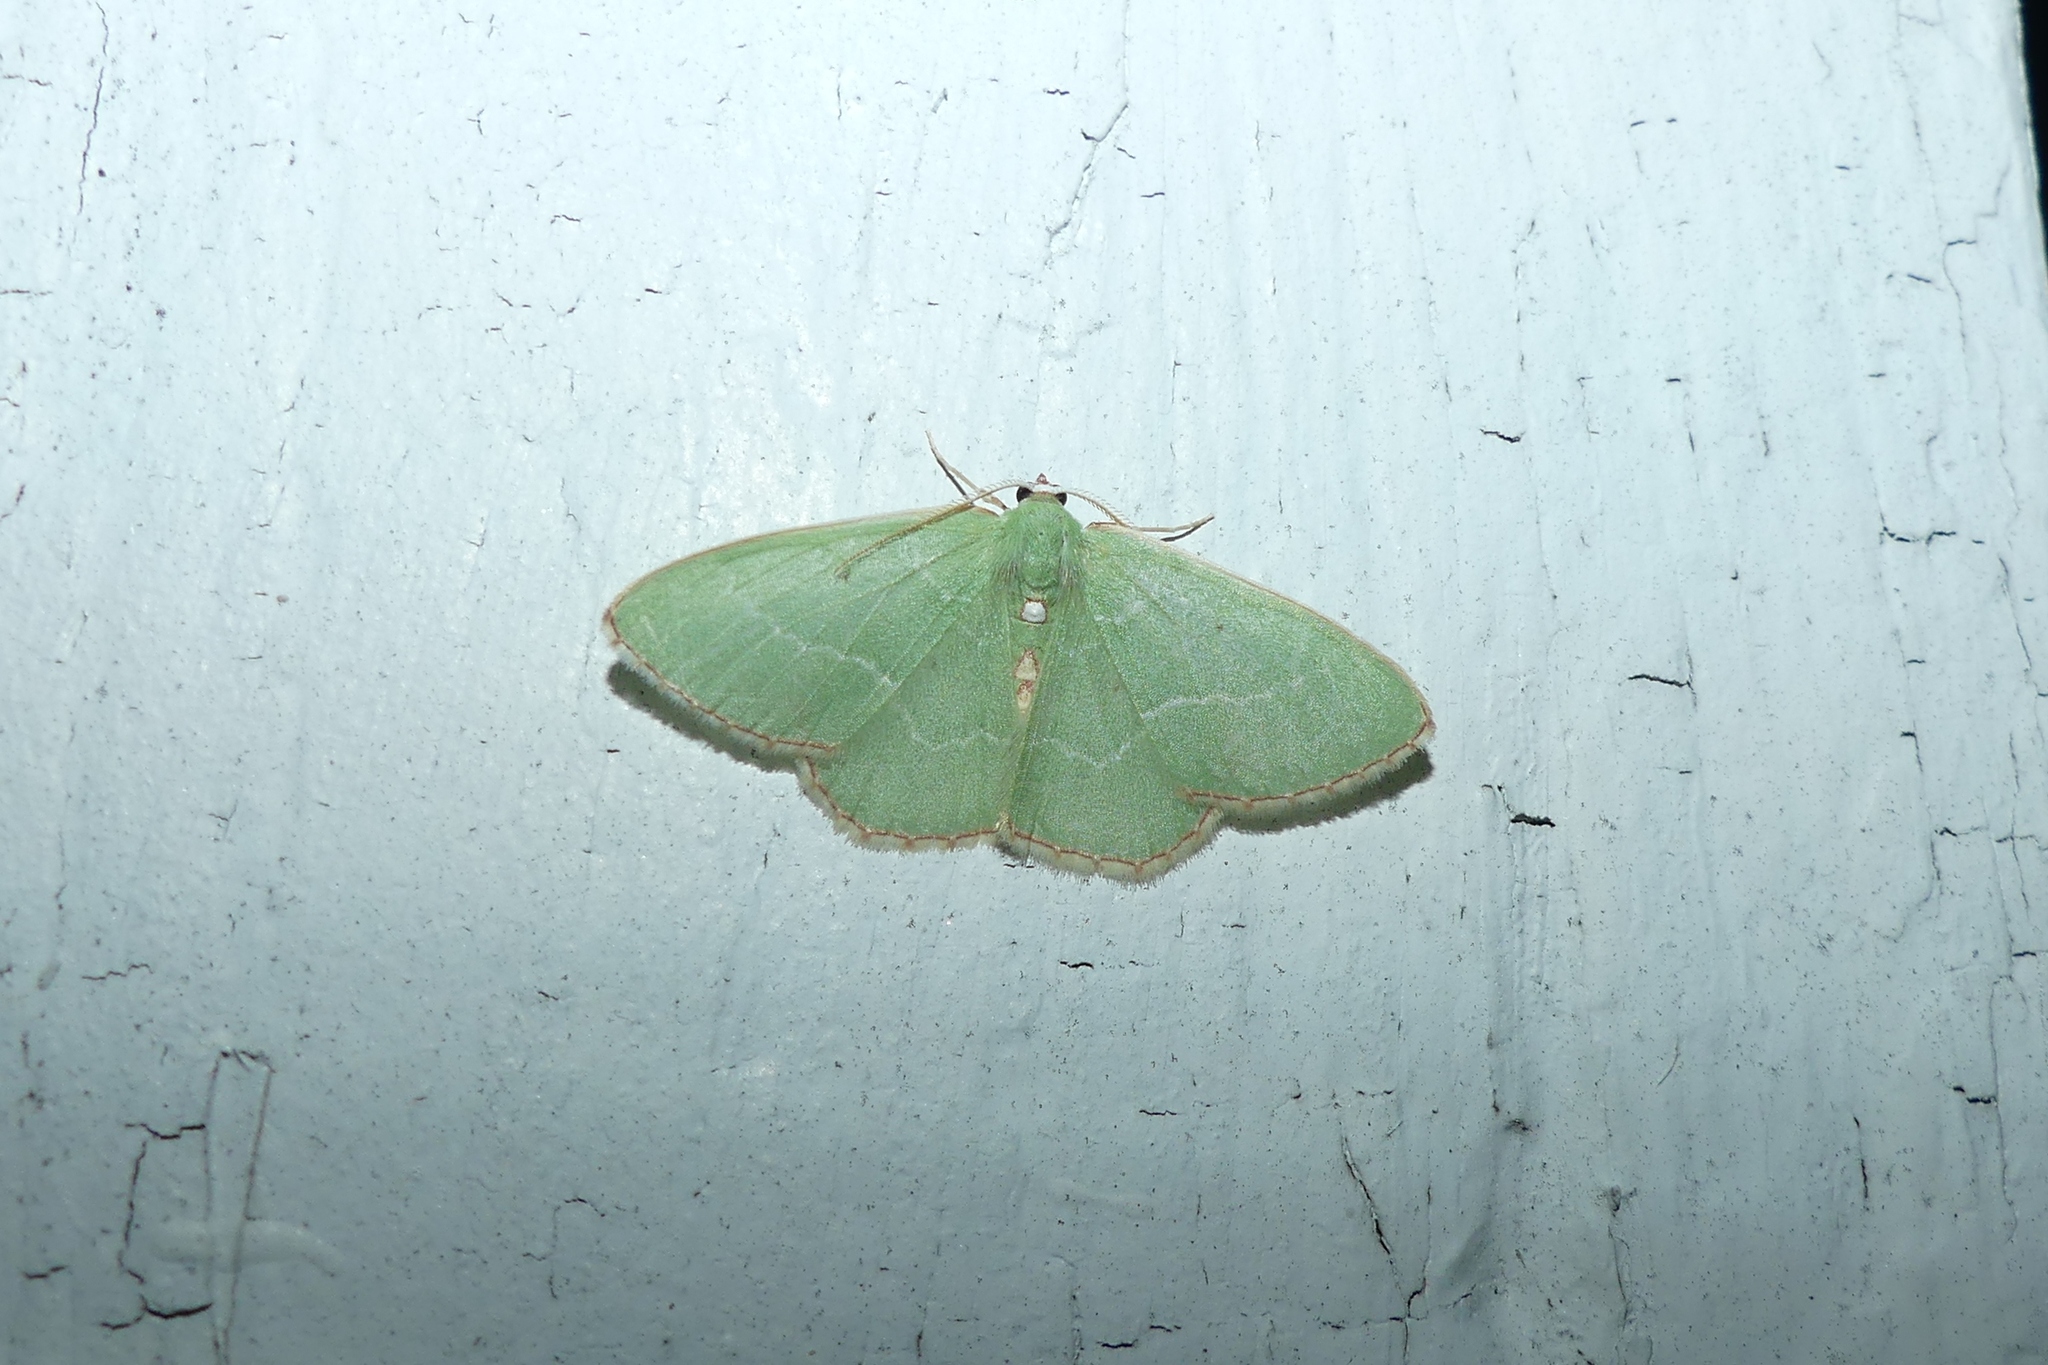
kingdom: Animalia
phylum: Arthropoda
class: Insecta
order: Lepidoptera
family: Geometridae
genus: Nemoria
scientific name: Nemoria lixaria
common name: Red-bordered emerald
